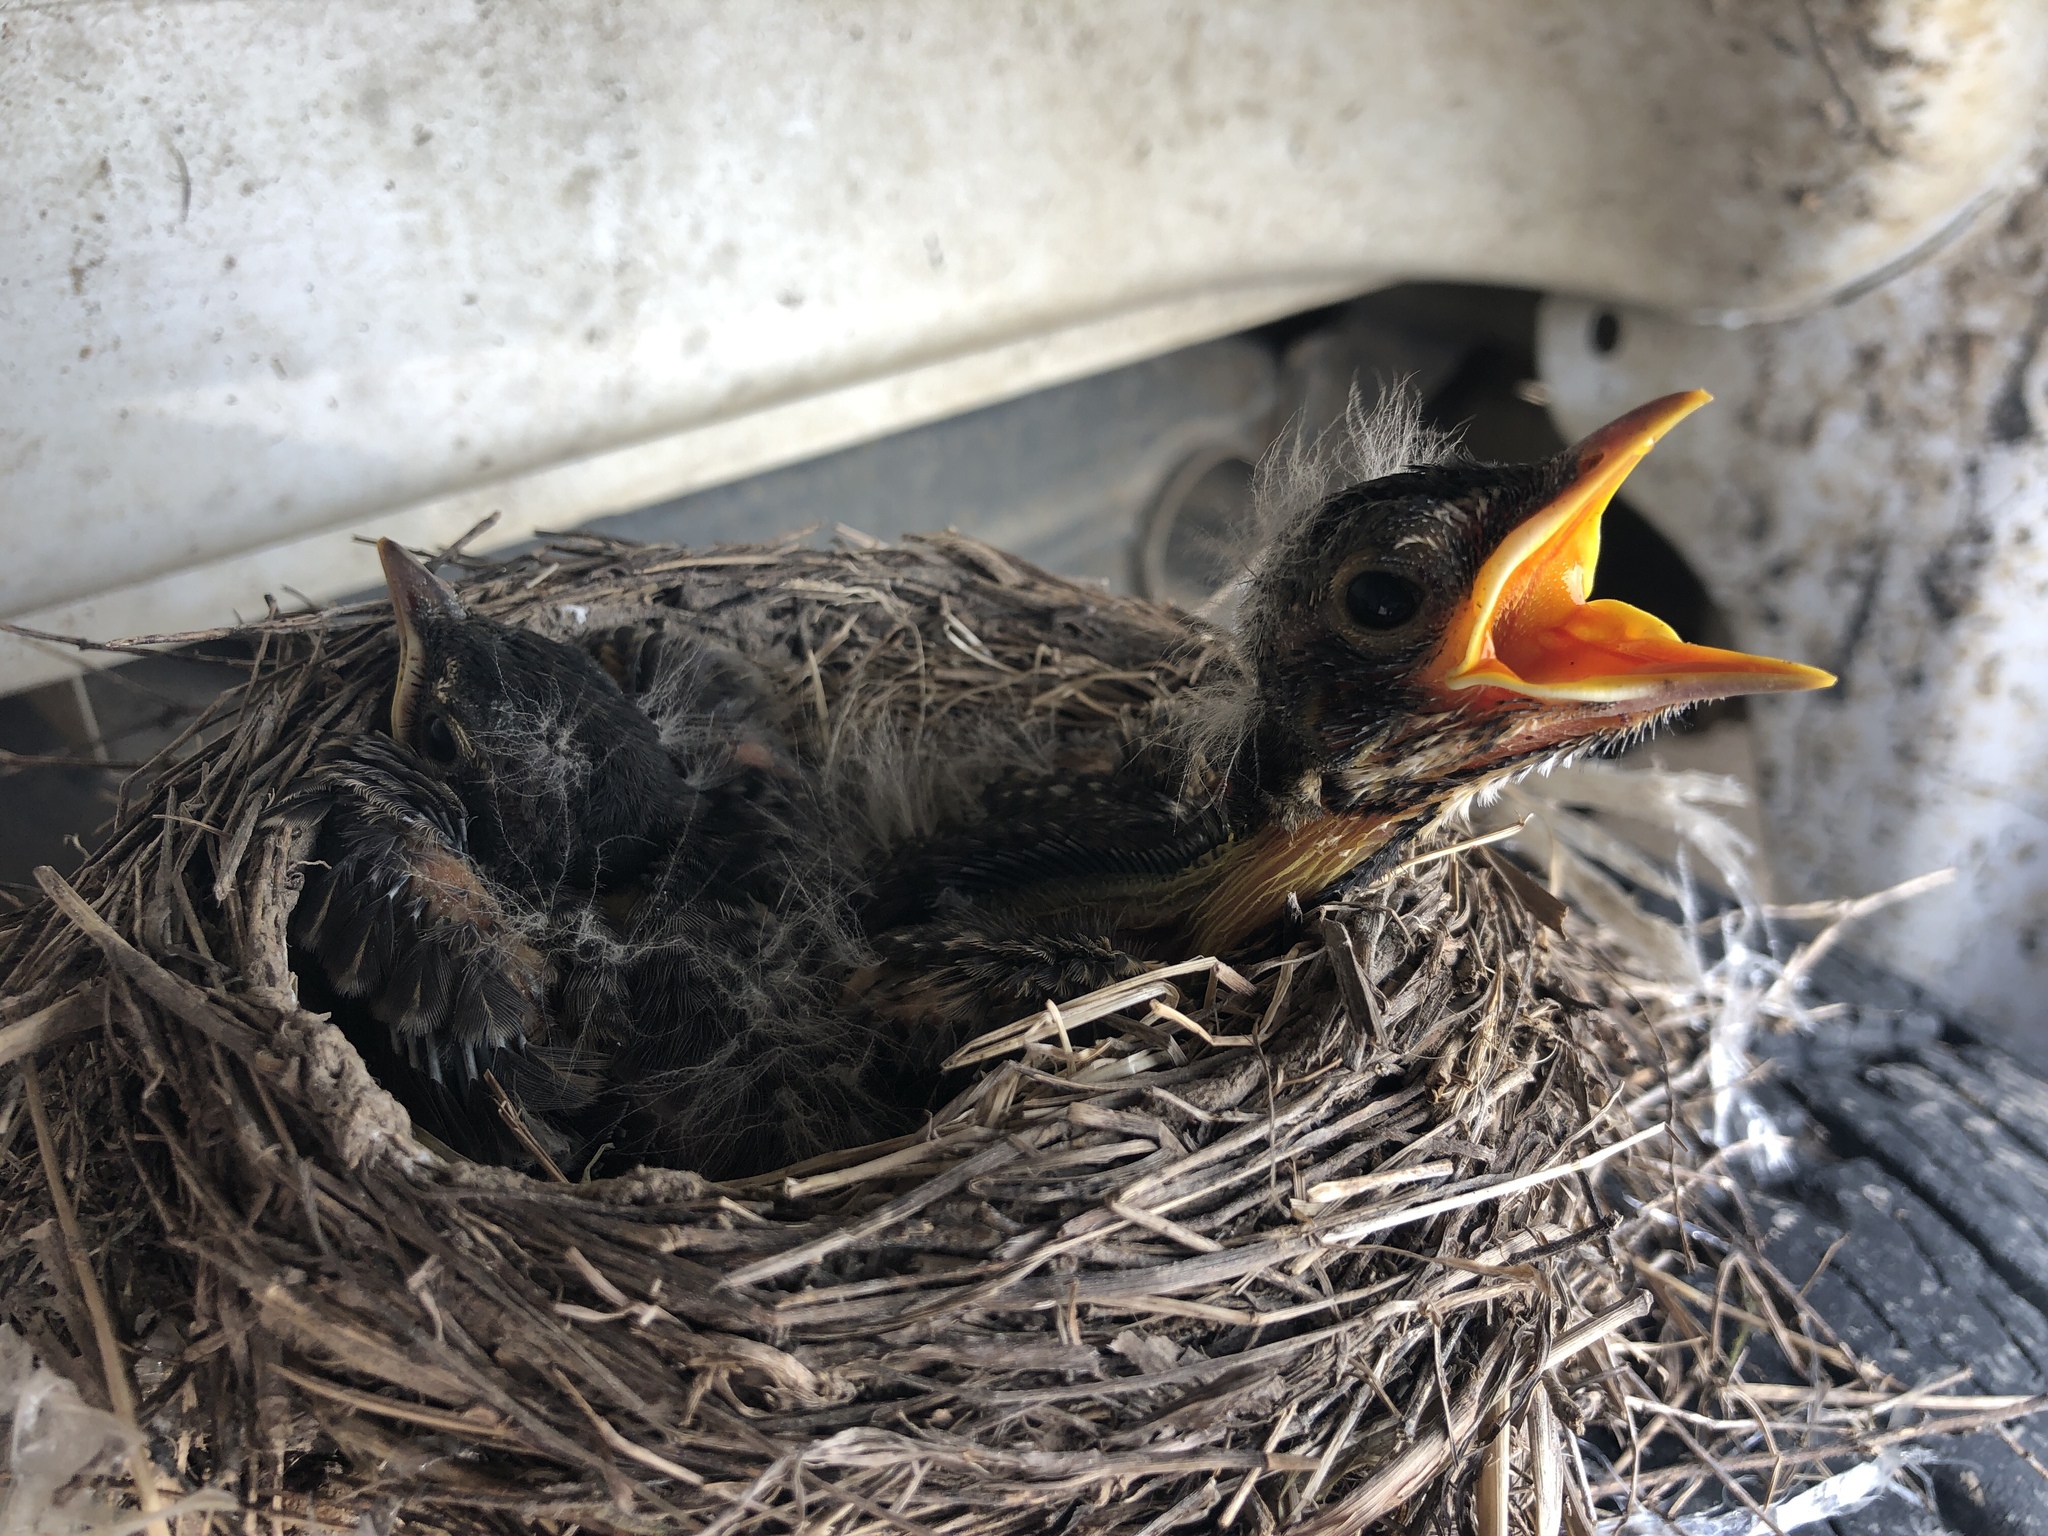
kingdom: Animalia
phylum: Chordata
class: Aves
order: Passeriformes
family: Turdidae
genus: Turdus
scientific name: Turdus migratorius
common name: American robin
